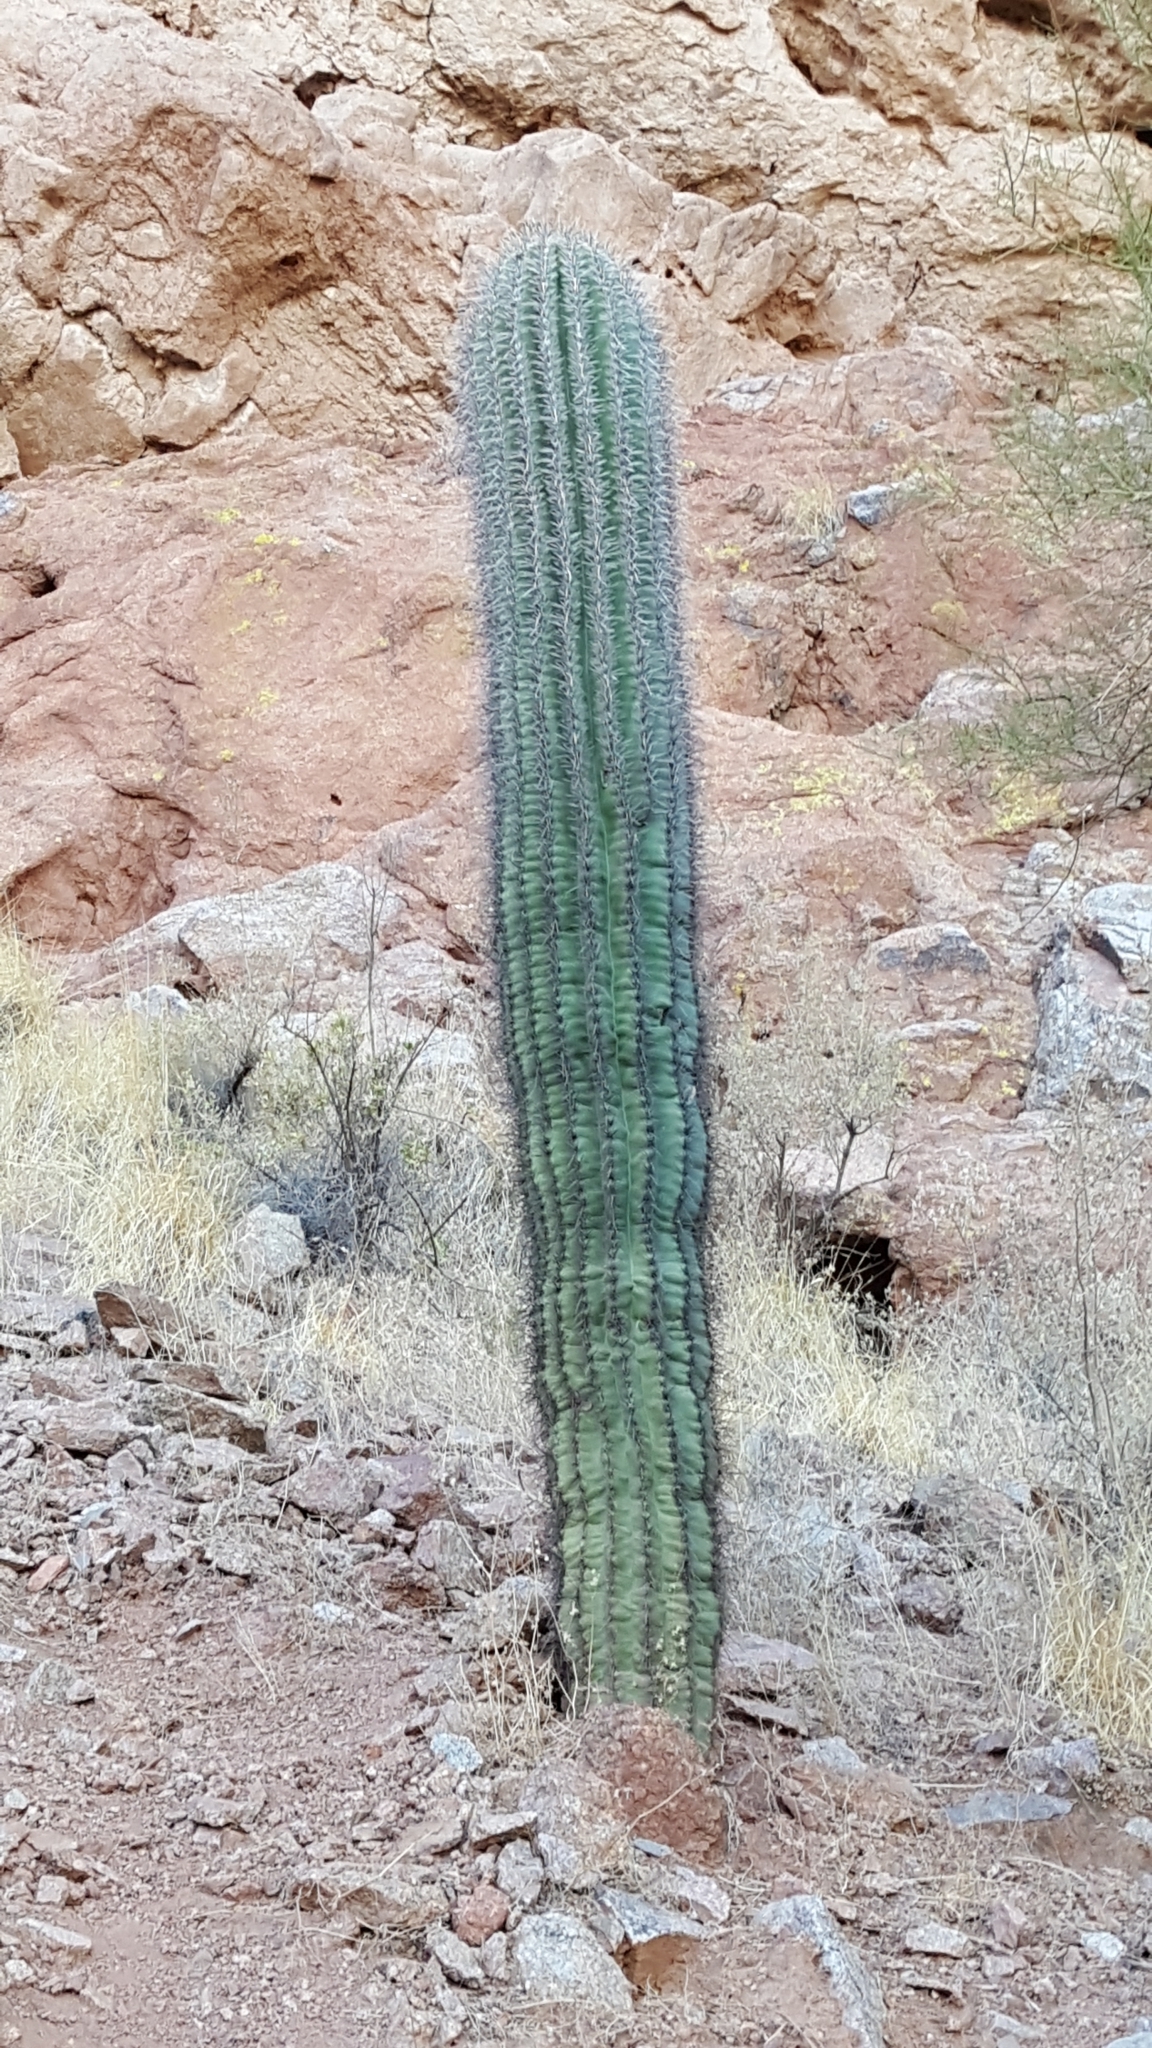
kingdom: Plantae
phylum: Tracheophyta
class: Magnoliopsida
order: Caryophyllales
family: Cactaceae
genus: Carnegiea
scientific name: Carnegiea gigantea
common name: Saguaro
